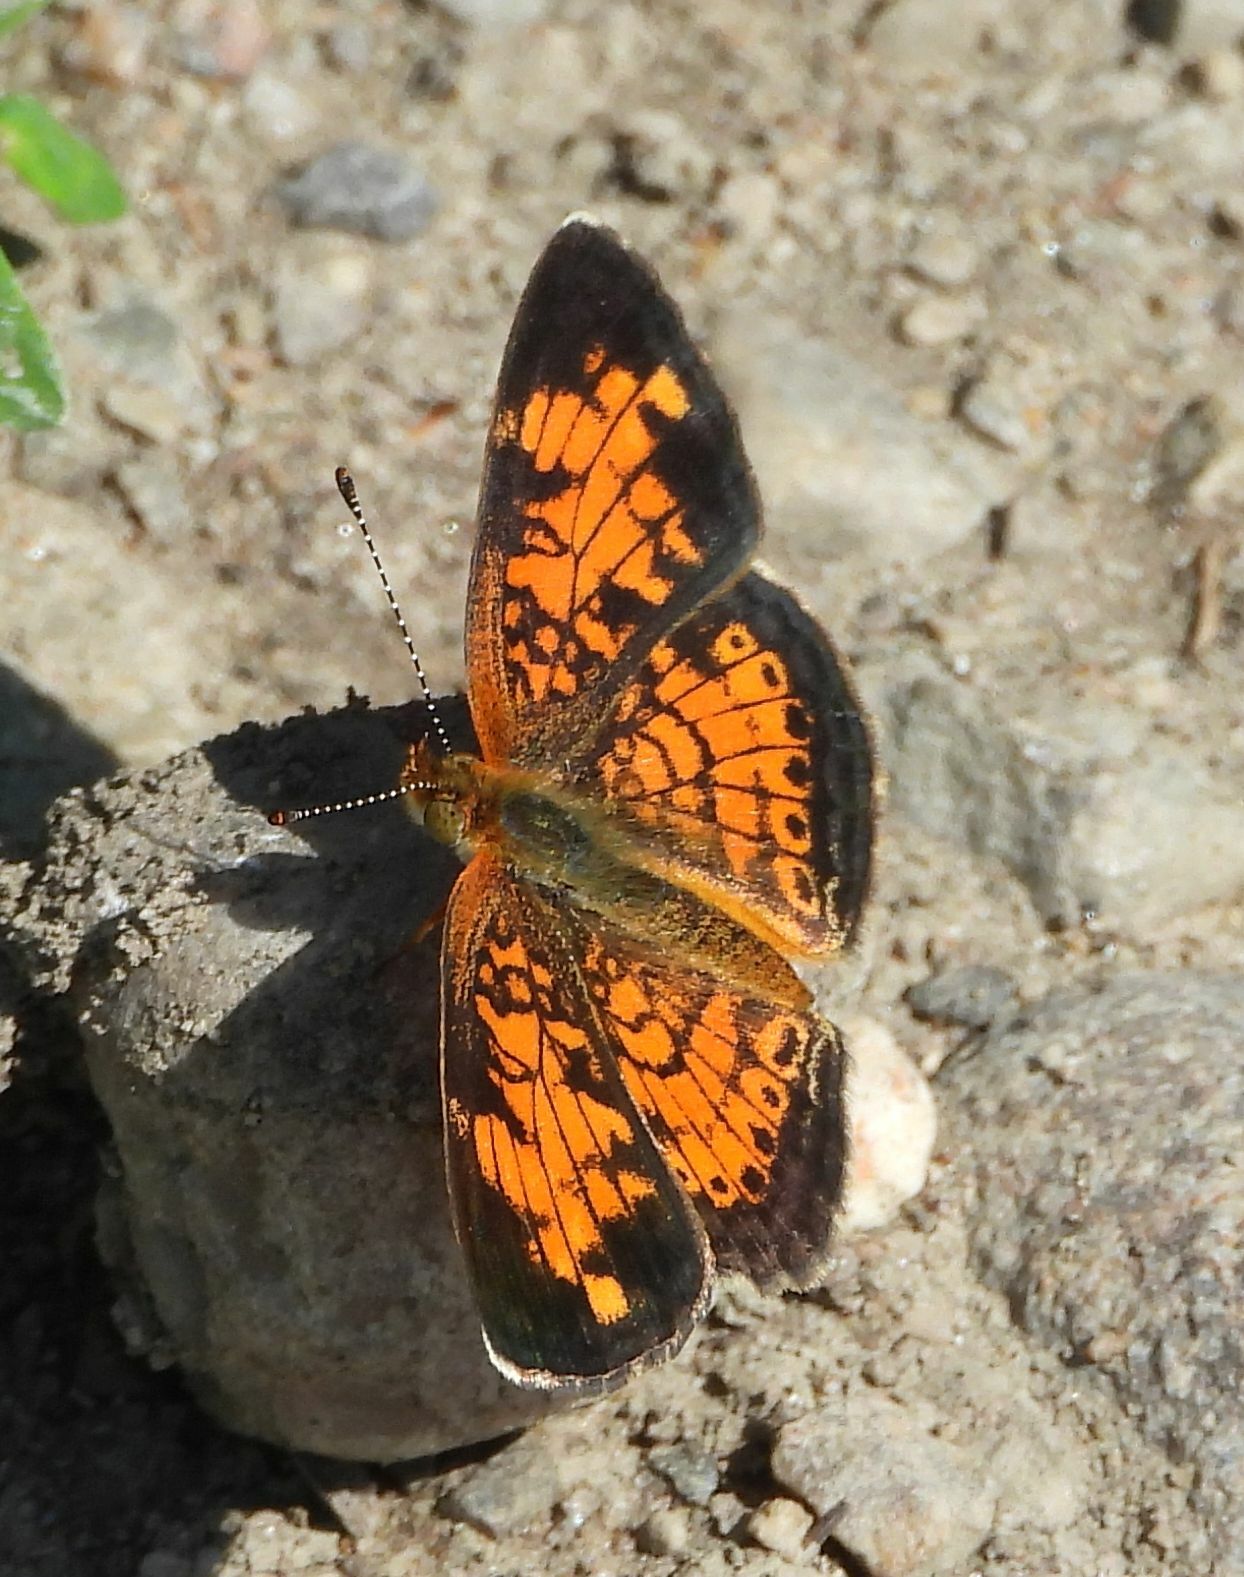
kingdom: Animalia
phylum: Arthropoda
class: Insecta
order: Lepidoptera
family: Nymphalidae
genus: Phyciodes
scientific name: Phyciodes tharos
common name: Pearl crescent
